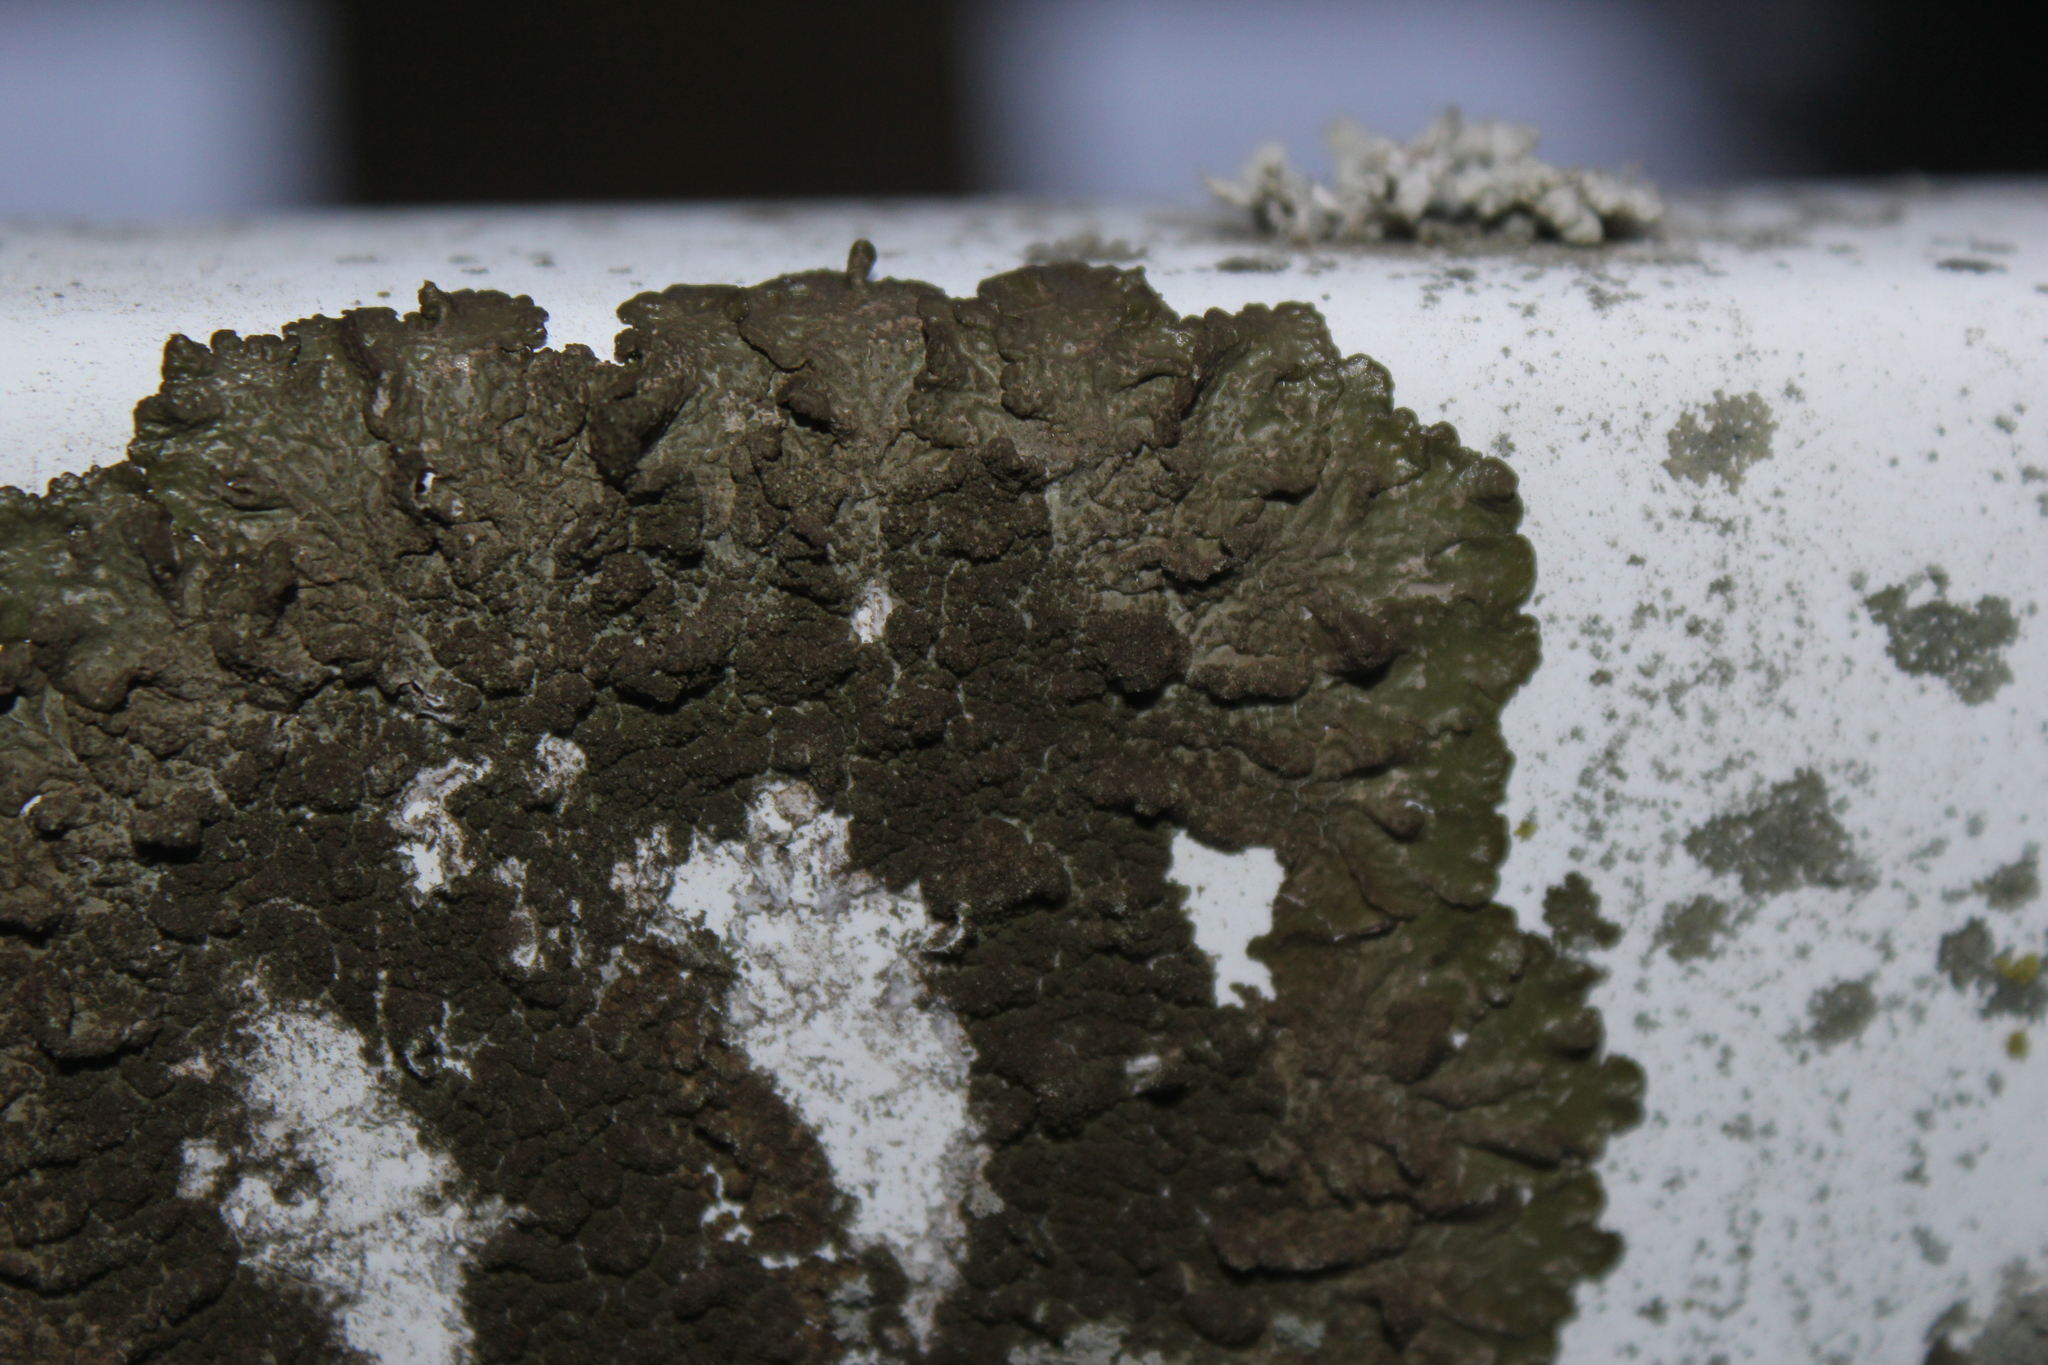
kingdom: Fungi
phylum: Ascomycota
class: Lecanoromycetes
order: Lecanorales
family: Parmeliaceae
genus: Melanelixia
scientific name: Melanelixia subaurifera
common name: Abraded camouflage lichen
